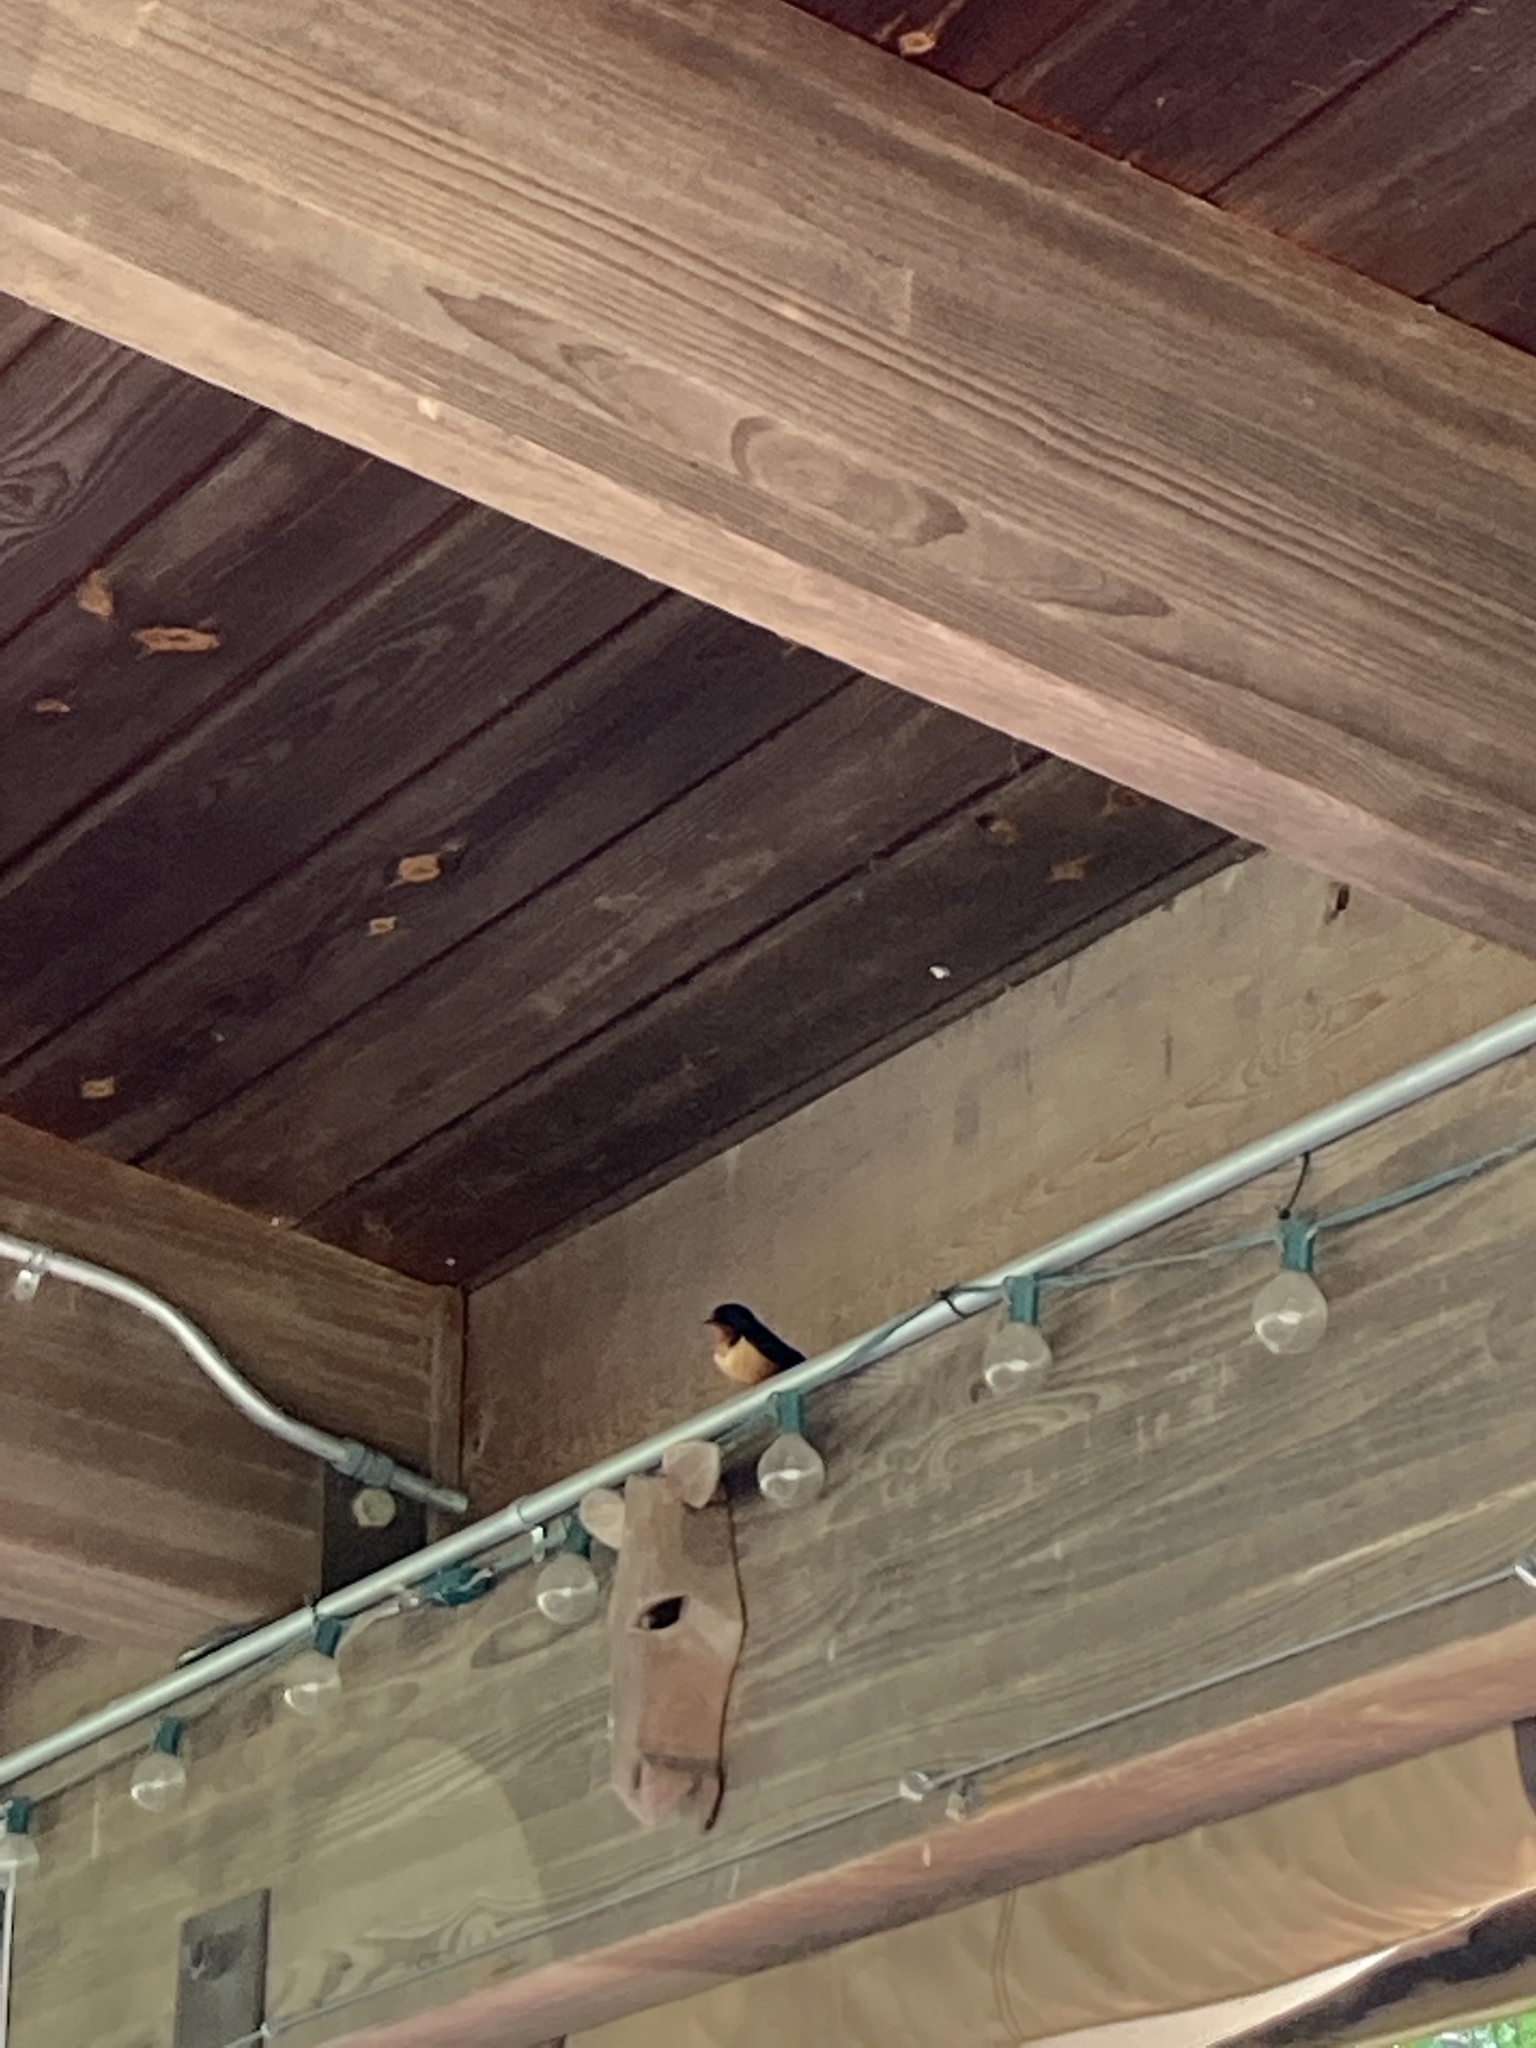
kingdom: Animalia
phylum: Chordata
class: Aves
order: Passeriformes
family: Hirundinidae
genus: Hirundo
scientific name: Hirundo rustica
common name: Barn swallow
